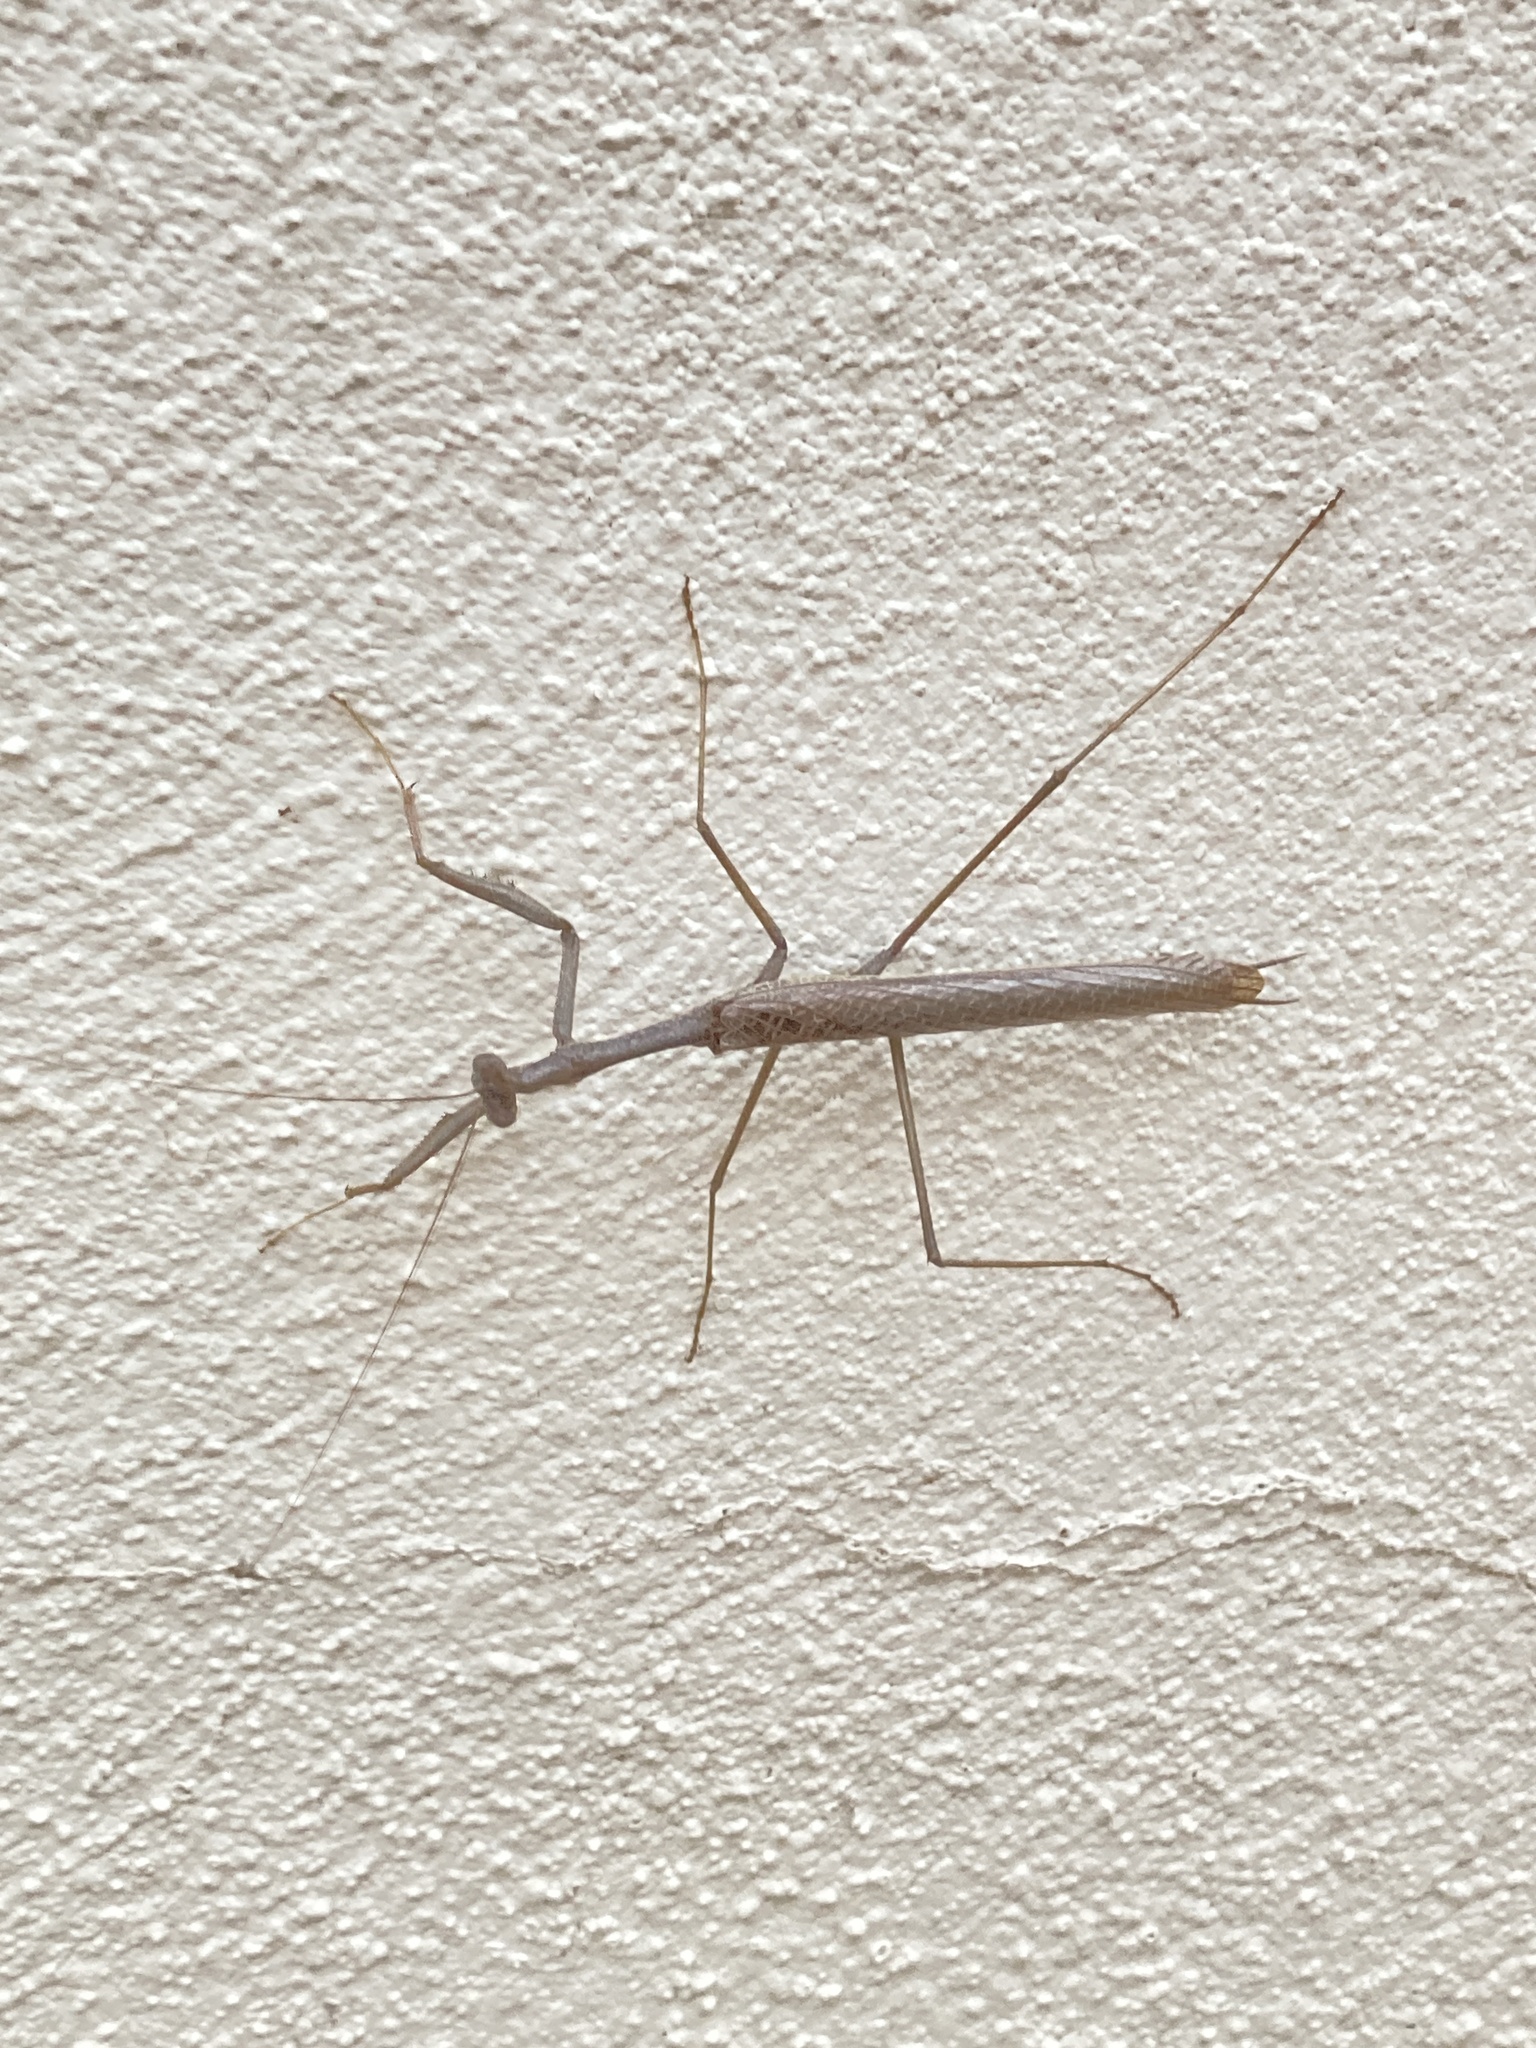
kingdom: Animalia
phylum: Arthropoda
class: Insecta
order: Mantodea
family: Coptopterygidae
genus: Coptopteryx
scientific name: Coptopteryx gayi
